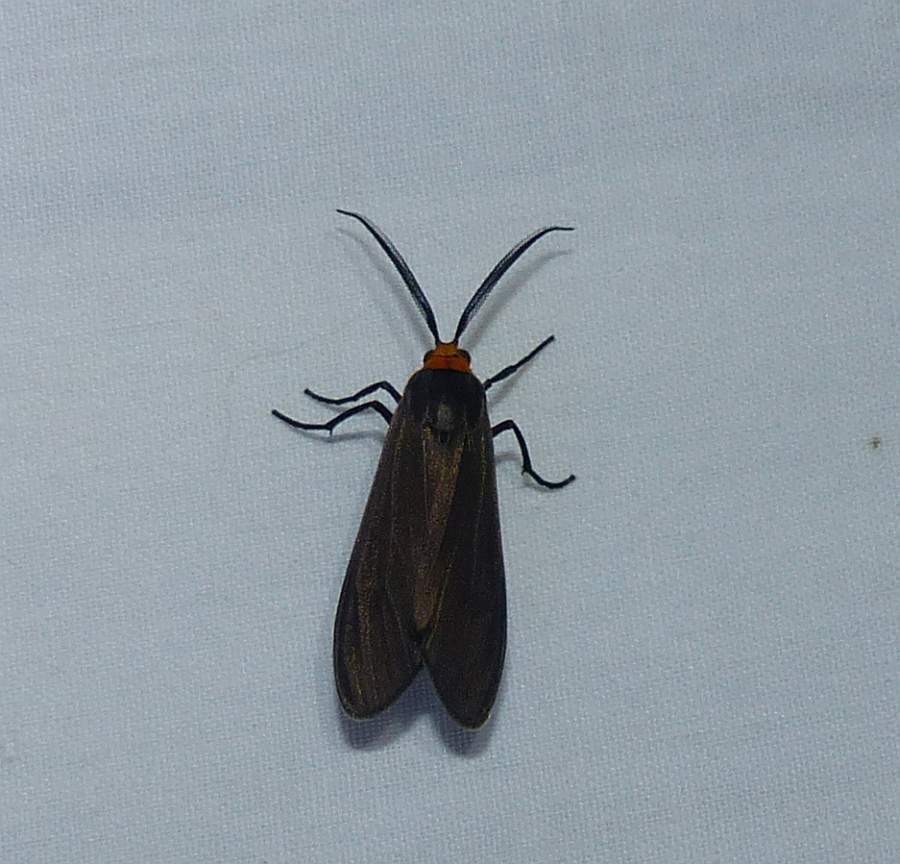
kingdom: Animalia
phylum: Arthropoda
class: Insecta
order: Lepidoptera
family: Erebidae
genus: Cisseps
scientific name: Cisseps fulvicollis
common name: Yellow-collared scape moth
